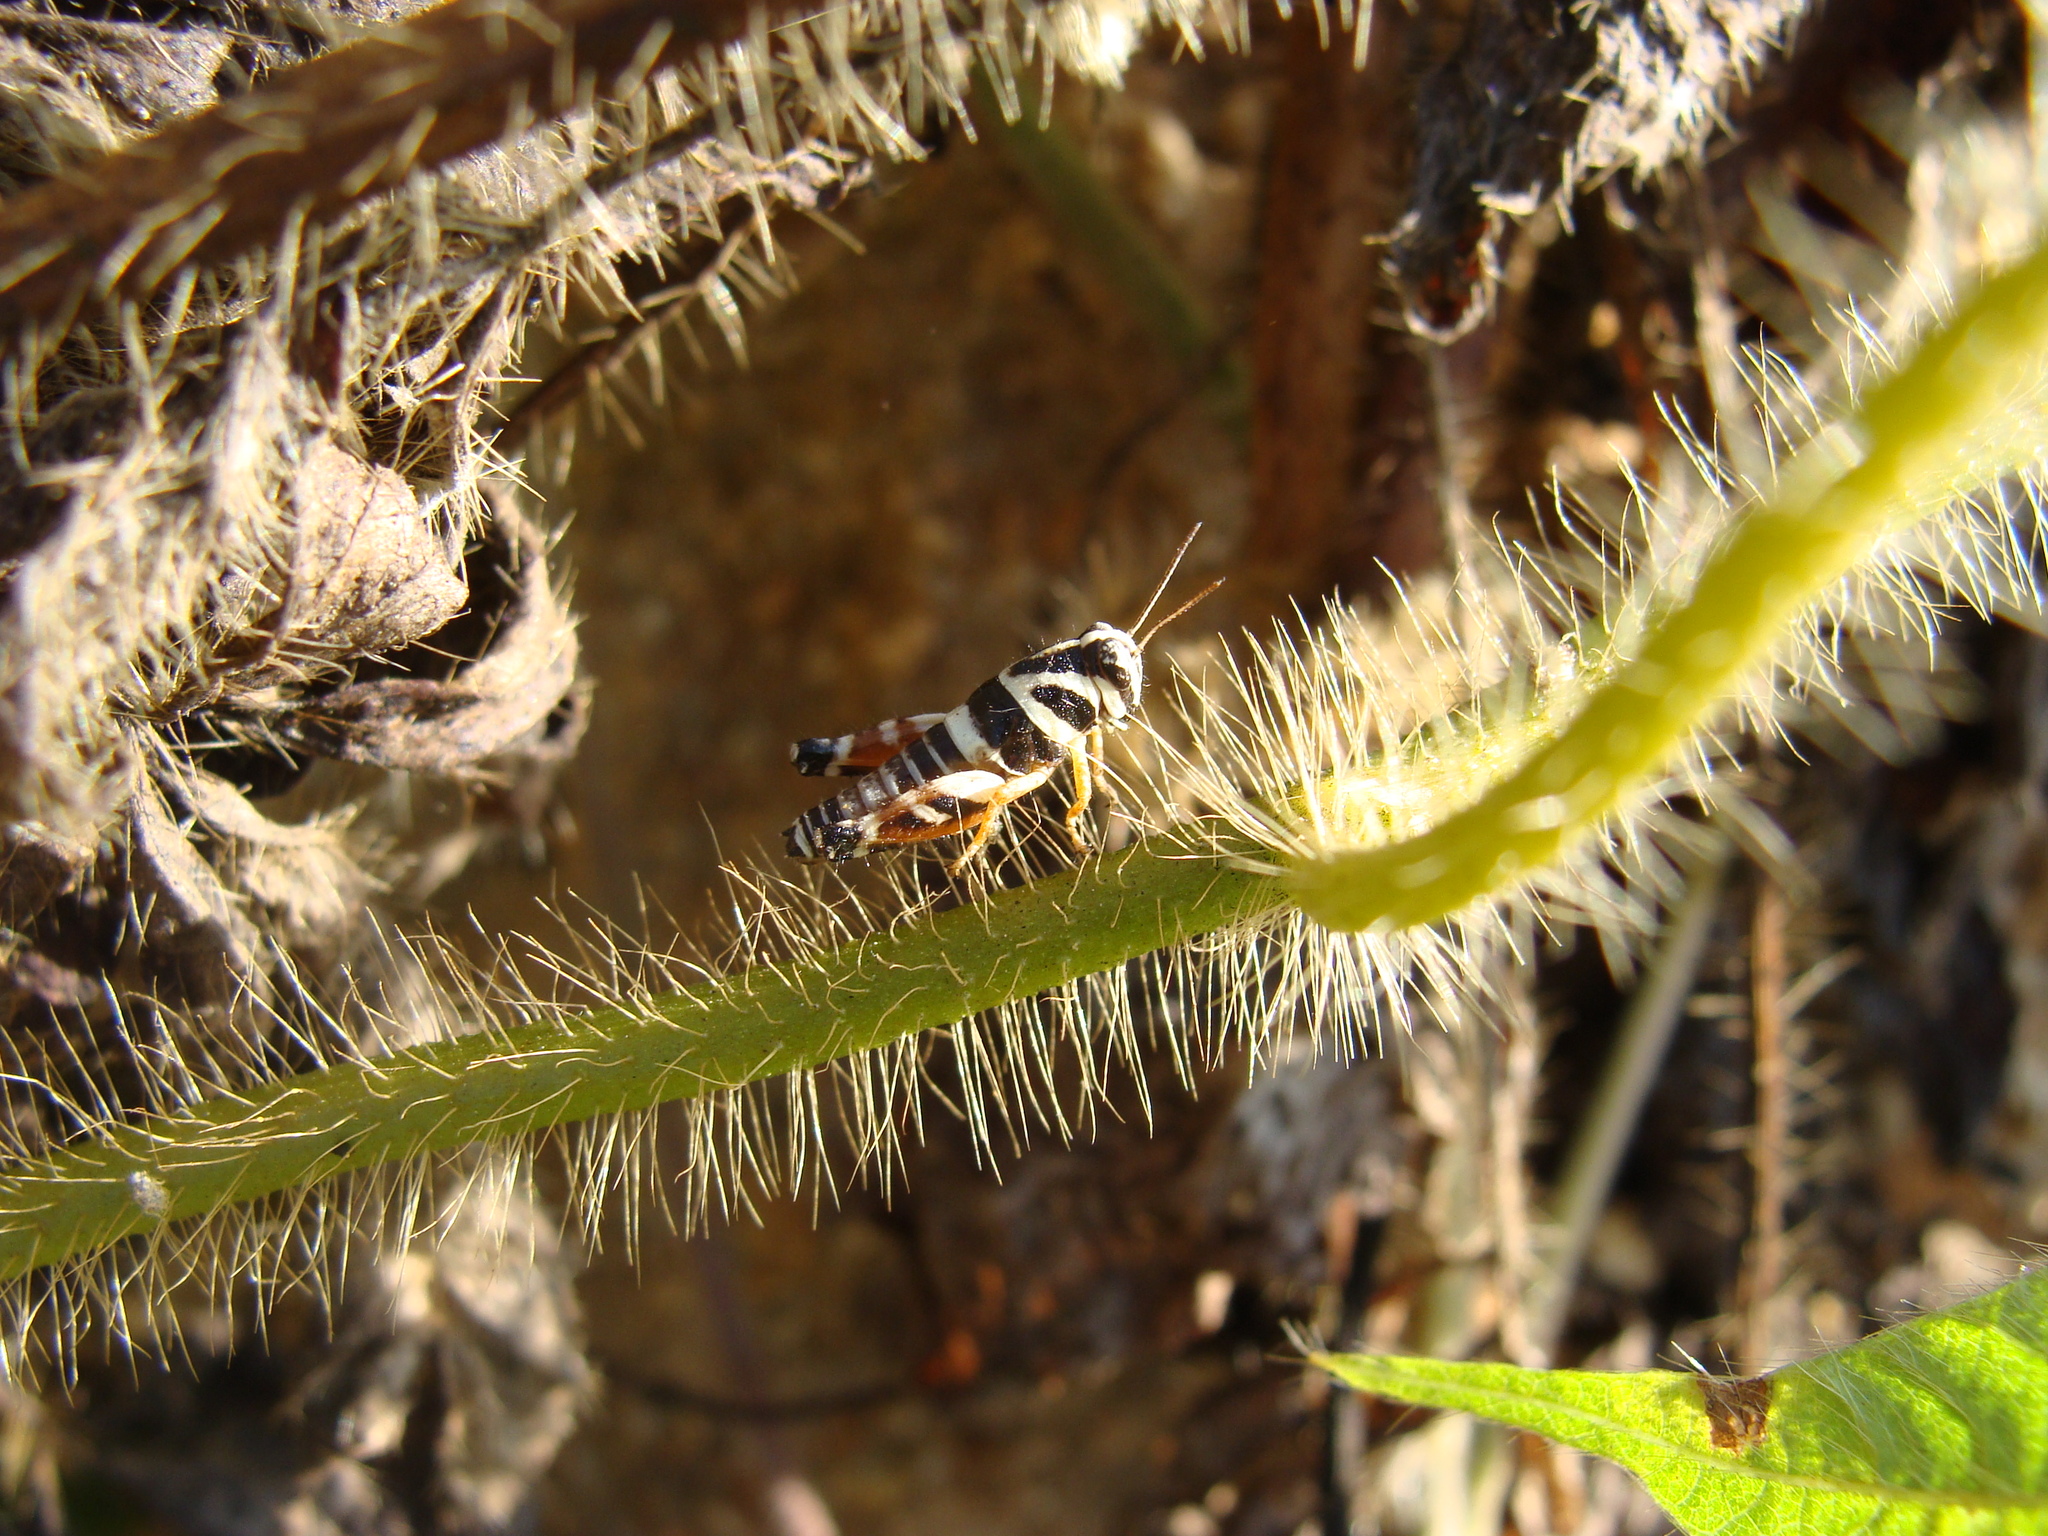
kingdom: Animalia
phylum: Arthropoda
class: Insecta
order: Orthoptera
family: Acrididae
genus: Aidemona
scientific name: Aidemona azteca
